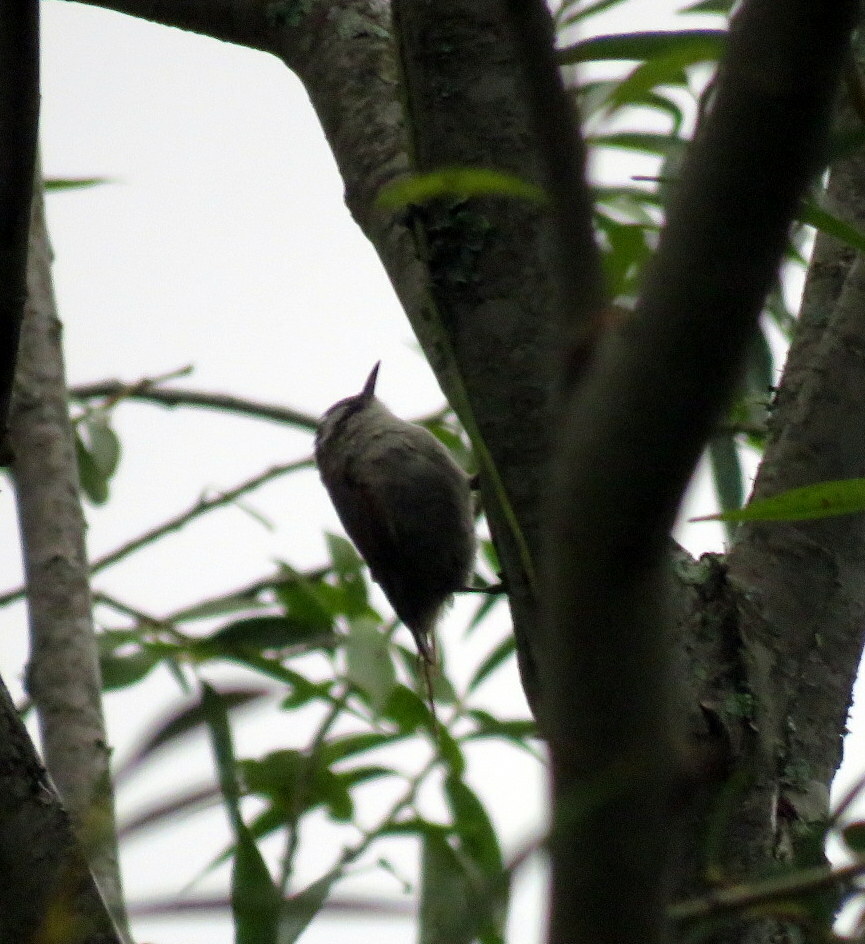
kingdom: Animalia
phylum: Chordata
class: Aves
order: Passeriformes
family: Furnariidae
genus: Cranioleuca
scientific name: Cranioleuca pyrrhophia
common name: Stripe-crowned spinetail
